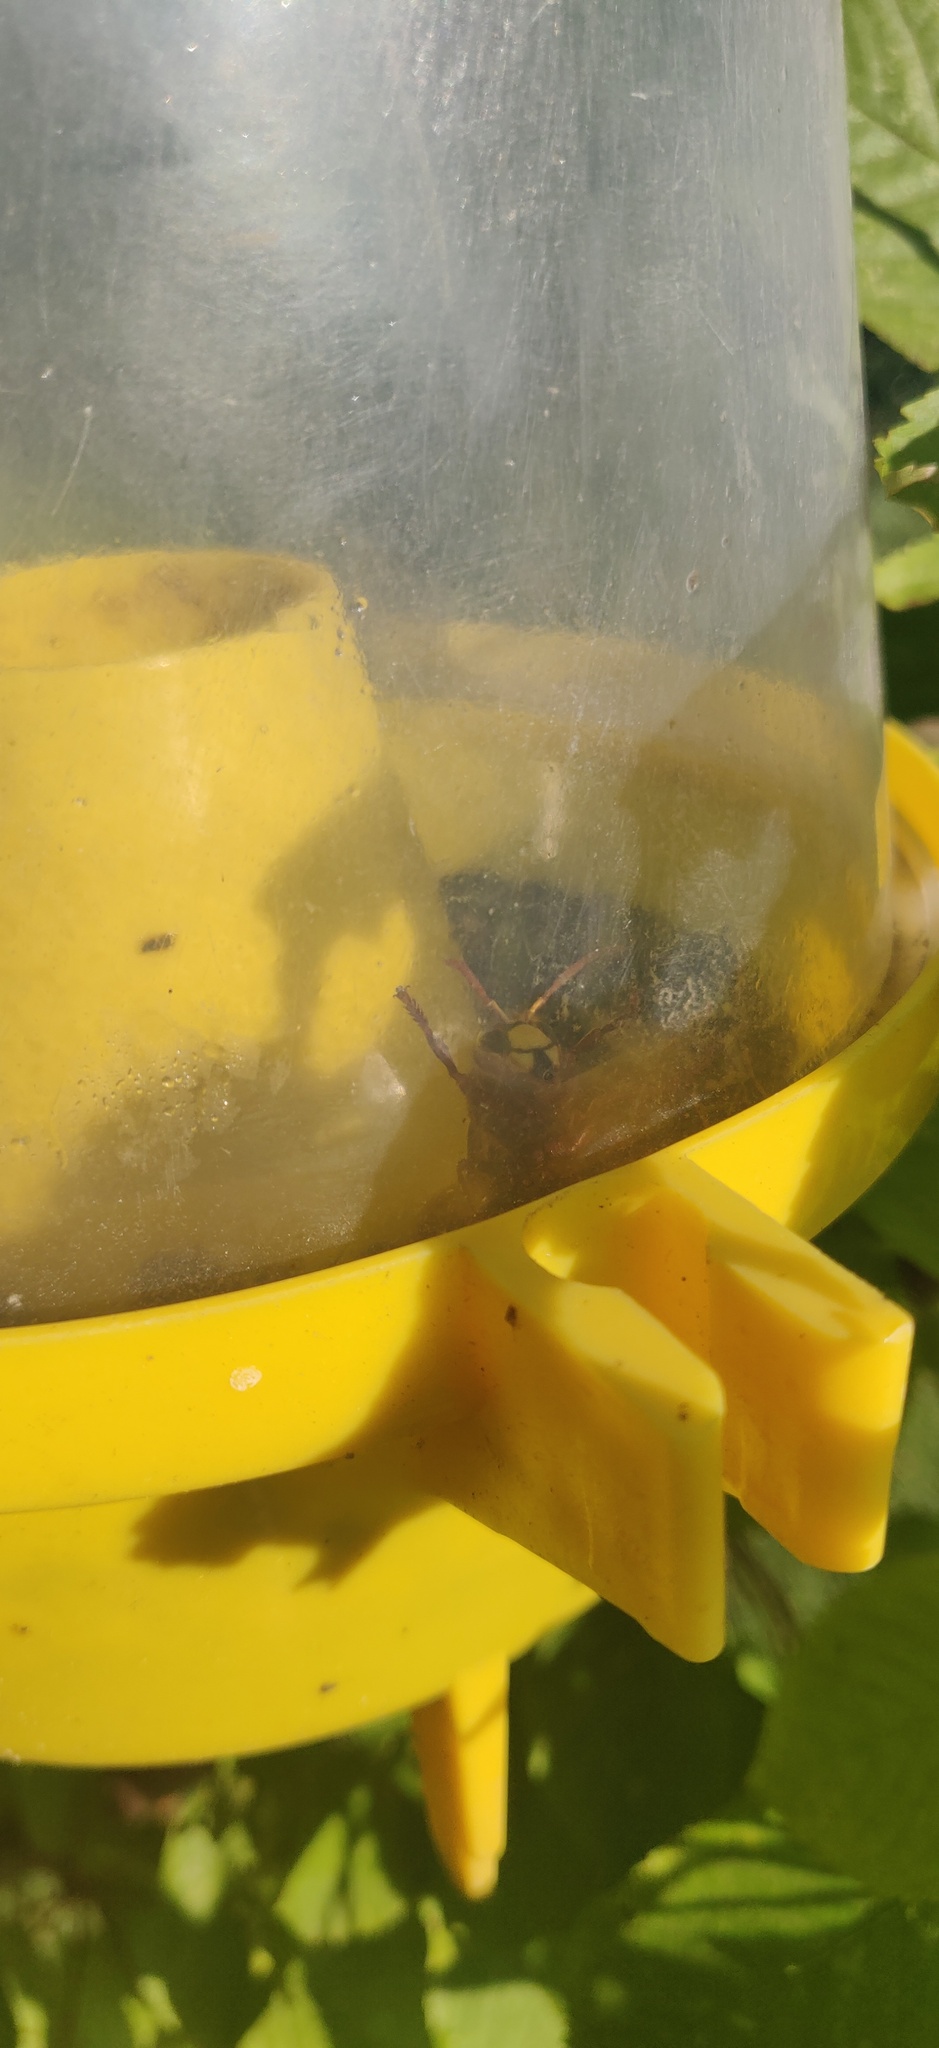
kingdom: Animalia
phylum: Arthropoda
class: Insecta
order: Hymenoptera
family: Vespidae
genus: Vespa
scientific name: Vespa crabro
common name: Hornet
